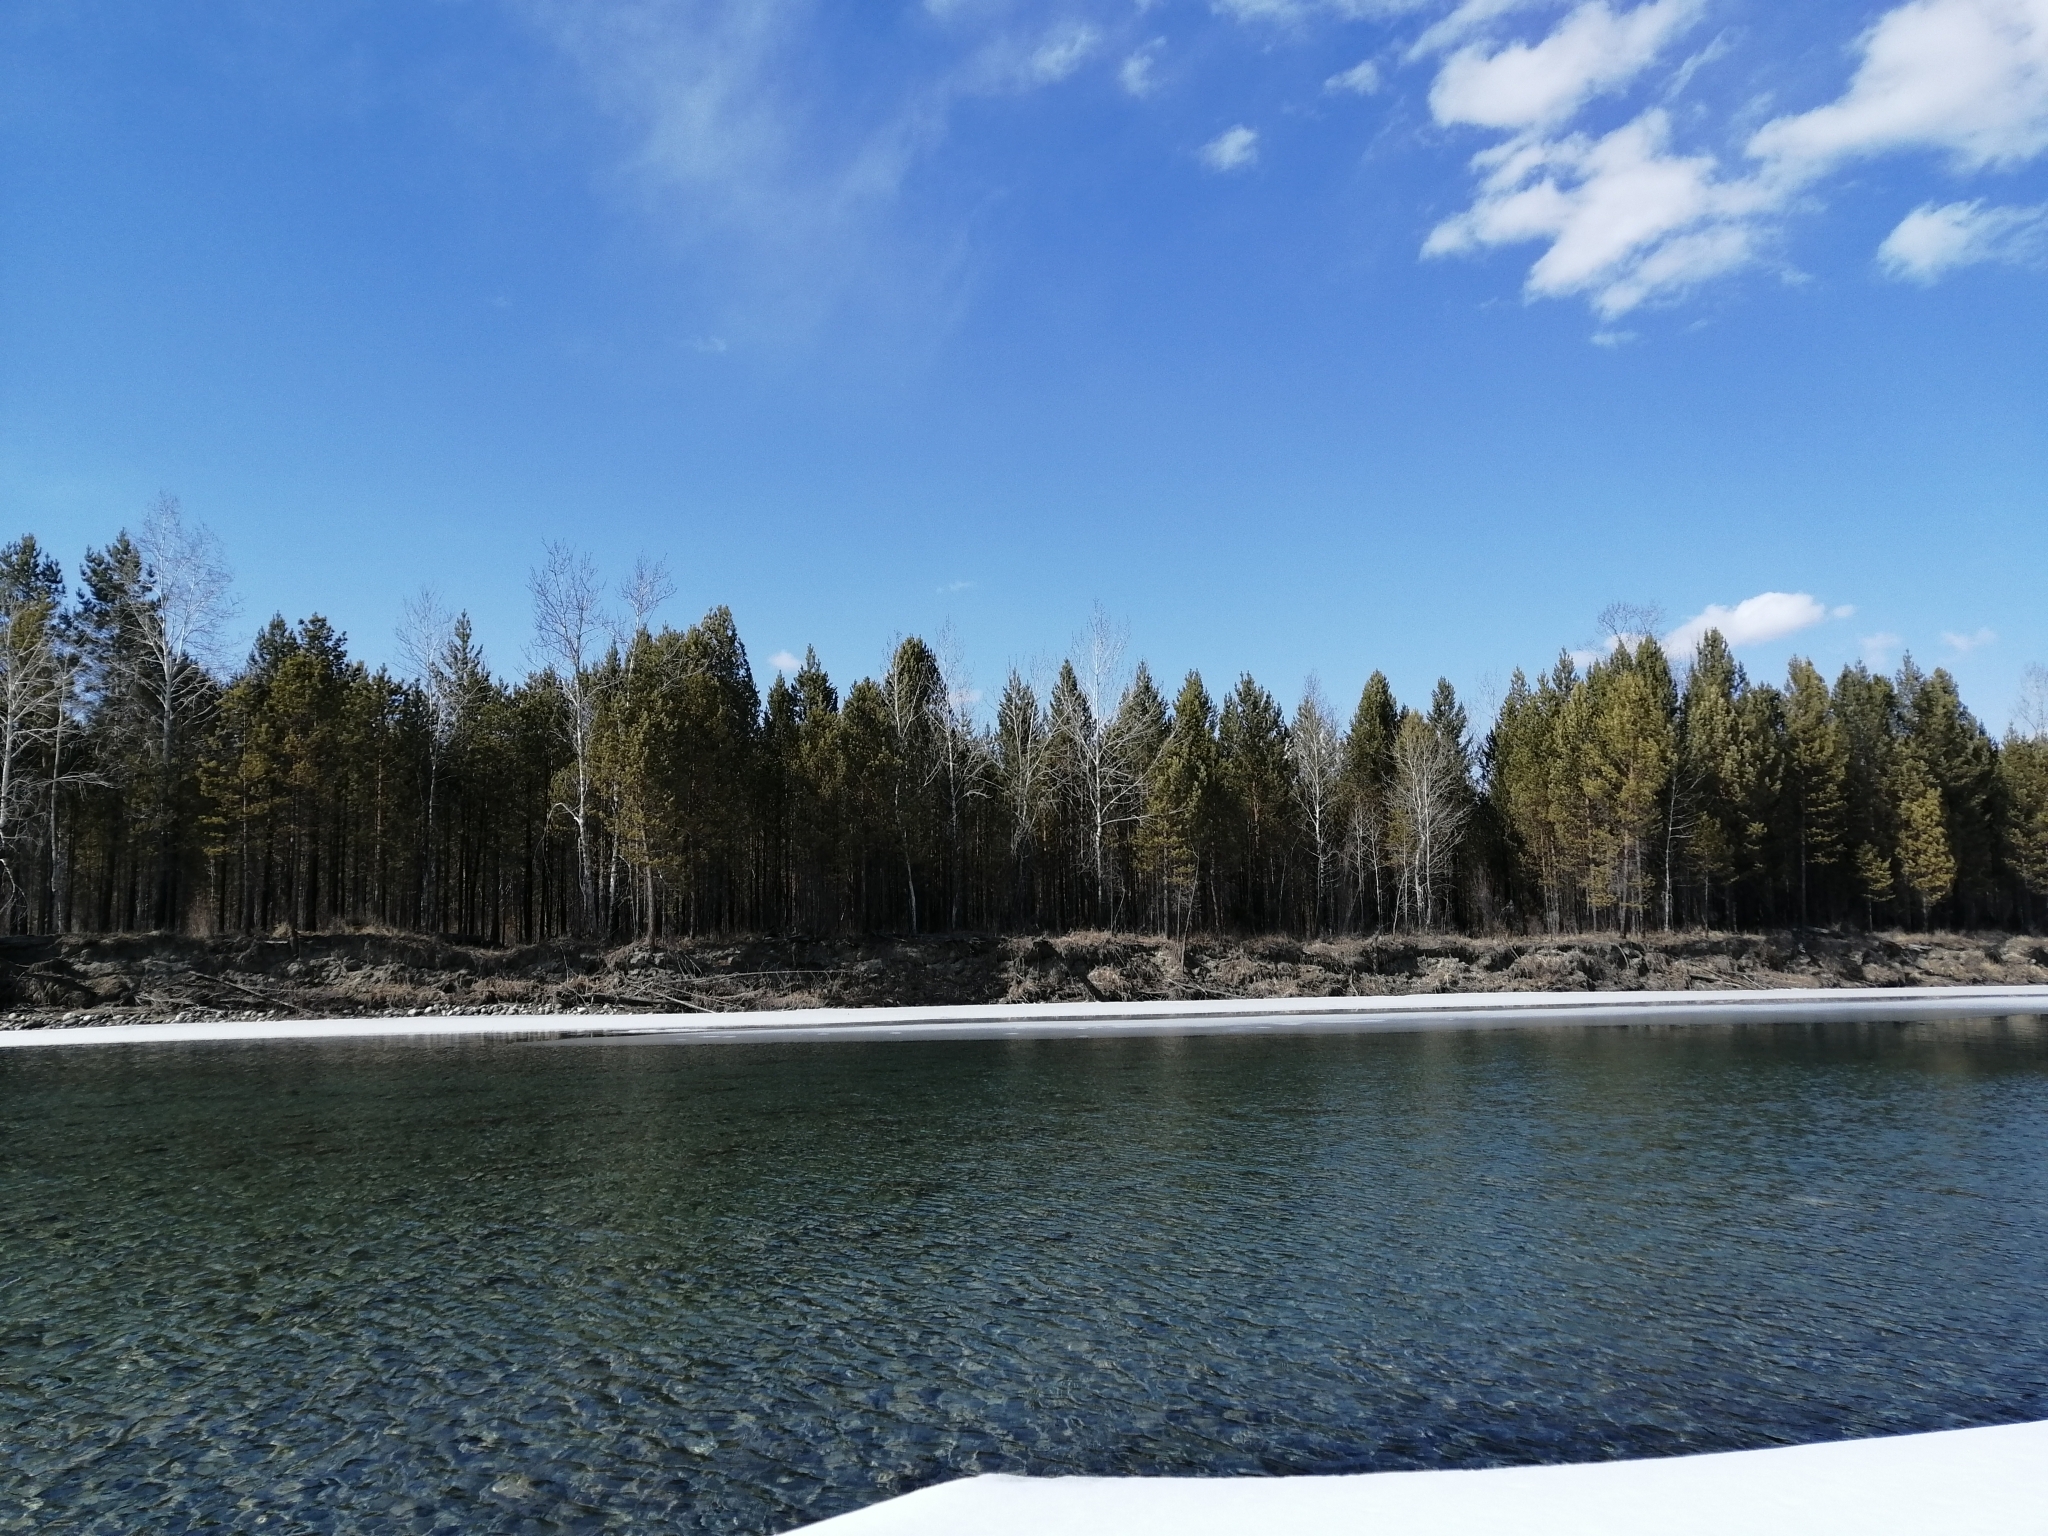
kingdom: Plantae
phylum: Tracheophyta
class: Pinopsida
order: Pinales
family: Pinaceae
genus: Pinus
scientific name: Pinus sylvestris
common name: Scots pine
